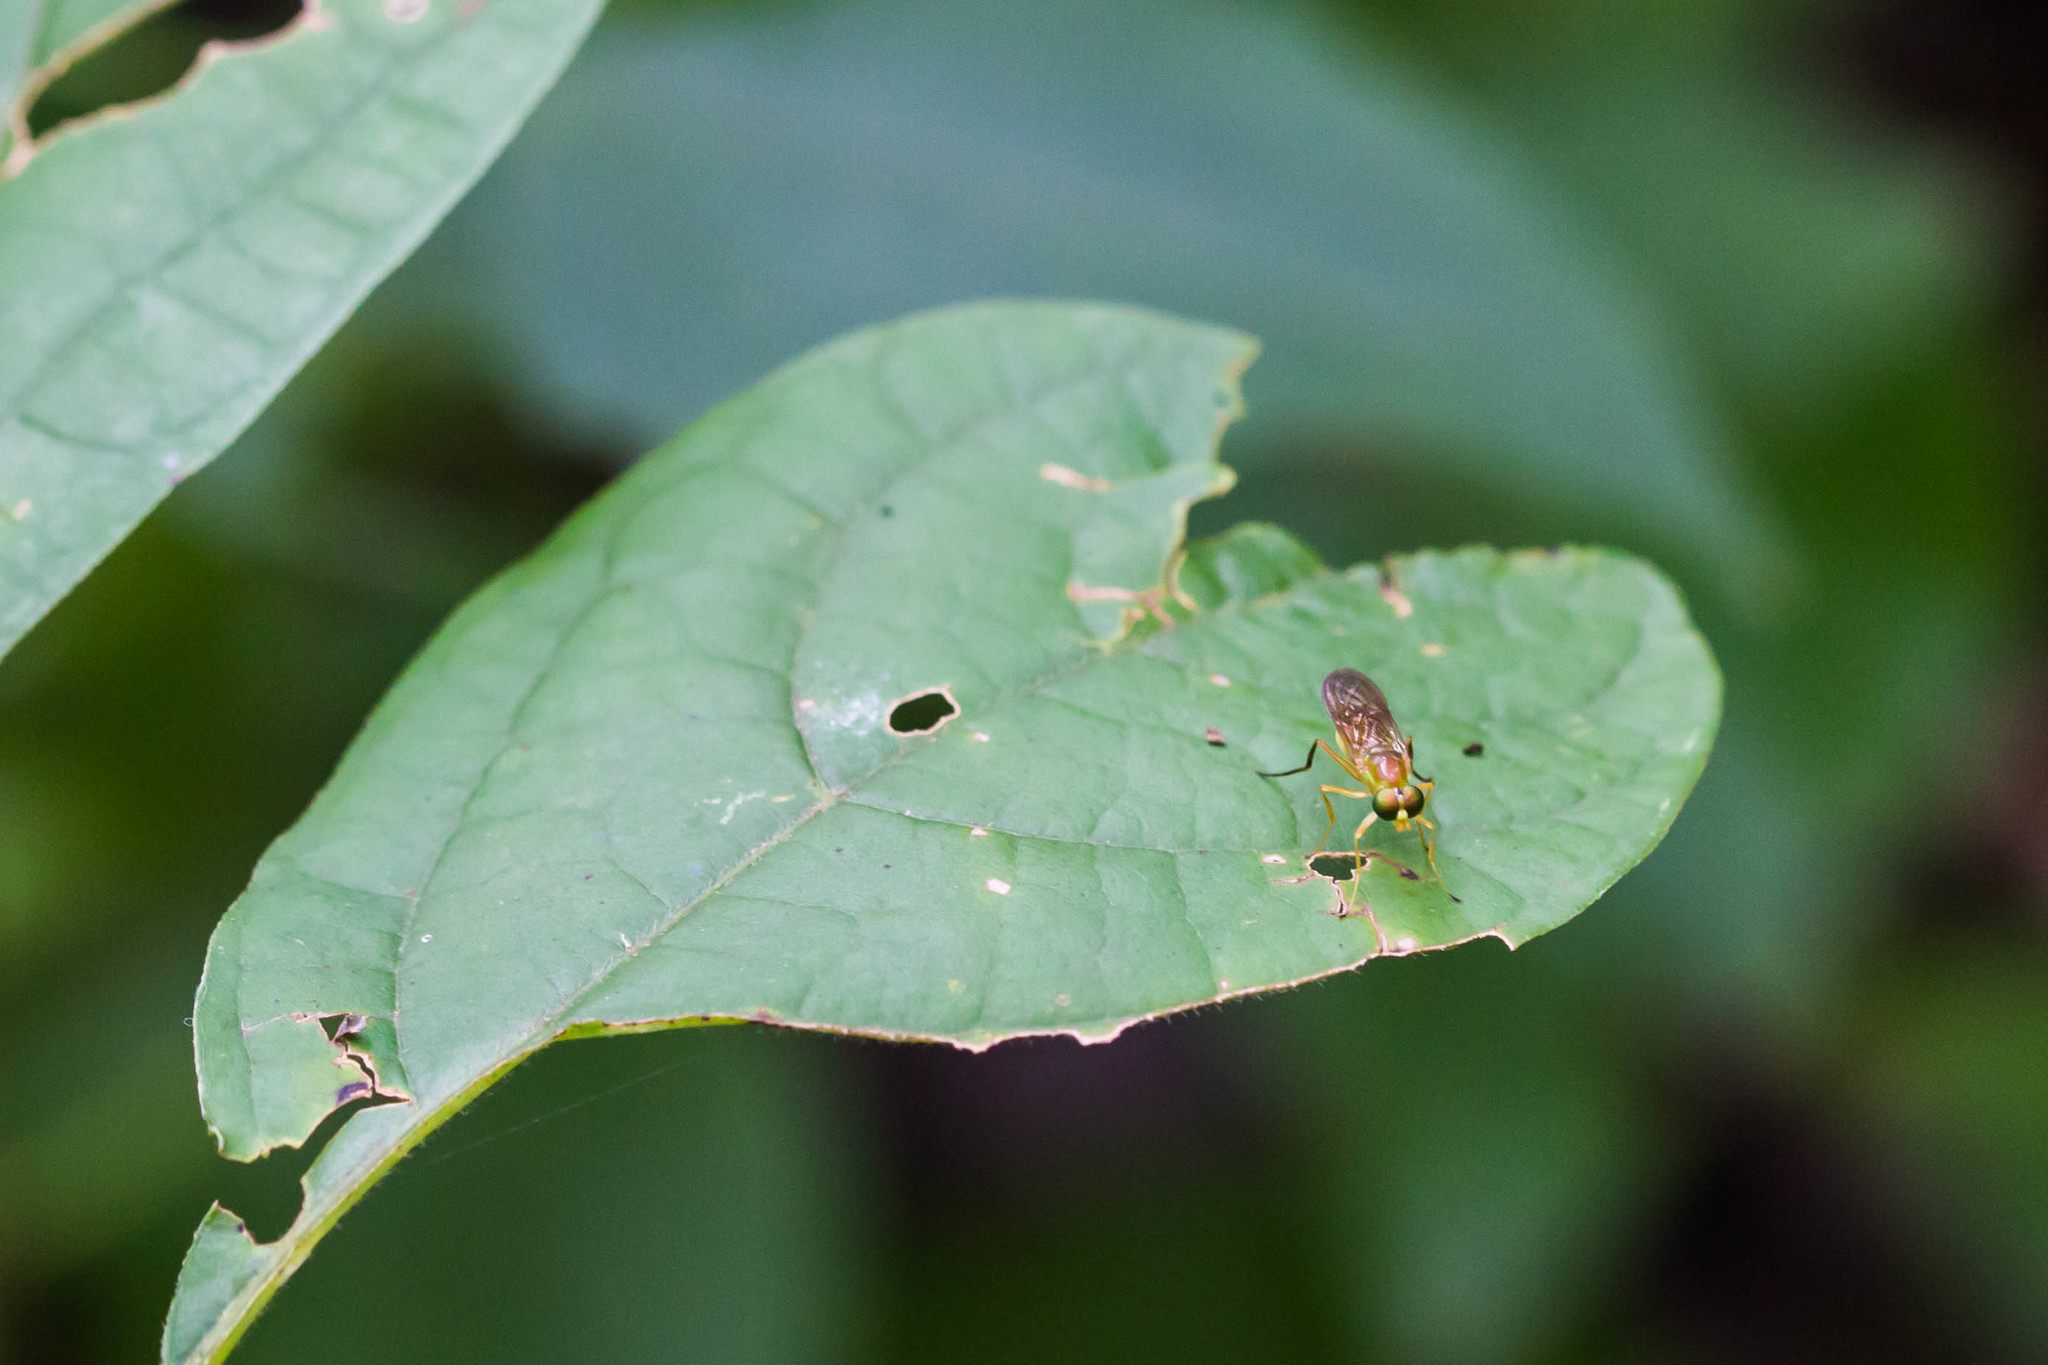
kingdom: Animalia
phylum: Arthropoda
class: Insecta
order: Diptera
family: Stratiomyidae
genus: Ptecticus
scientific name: Ptecticus trivittatus
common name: Compost fly
